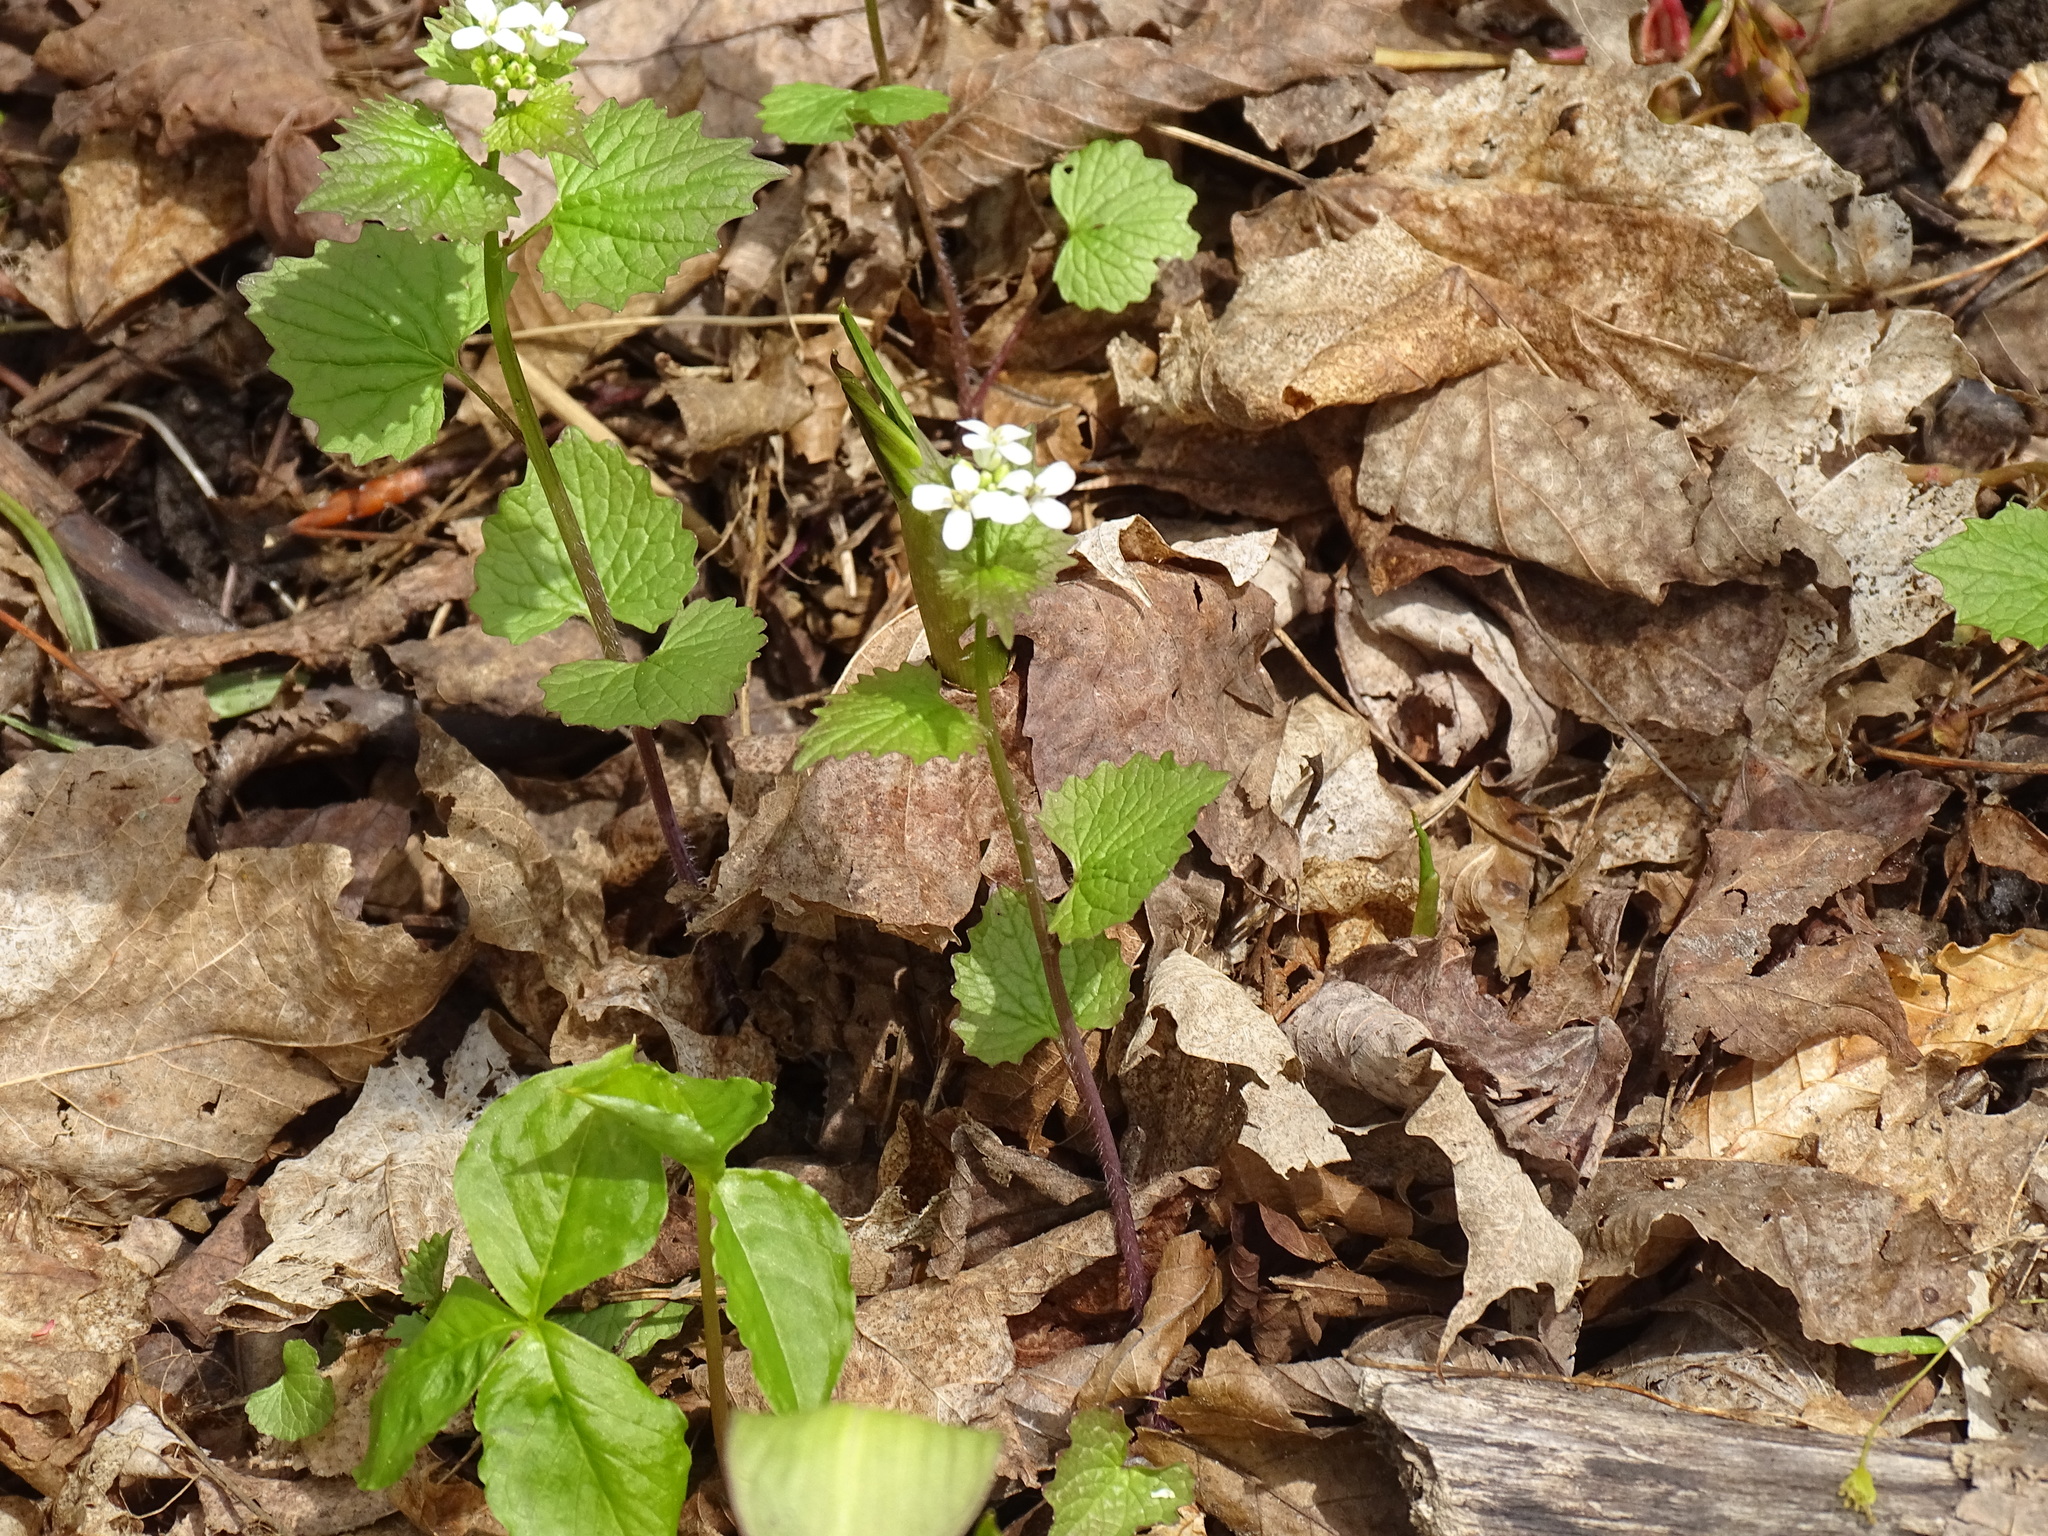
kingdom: Plantae
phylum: Tracheophyta
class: Magnoliopsida
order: Brassicales
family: Brassicaceae
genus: Alliaria
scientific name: Alliaria petiolata
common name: Garlic mustard
